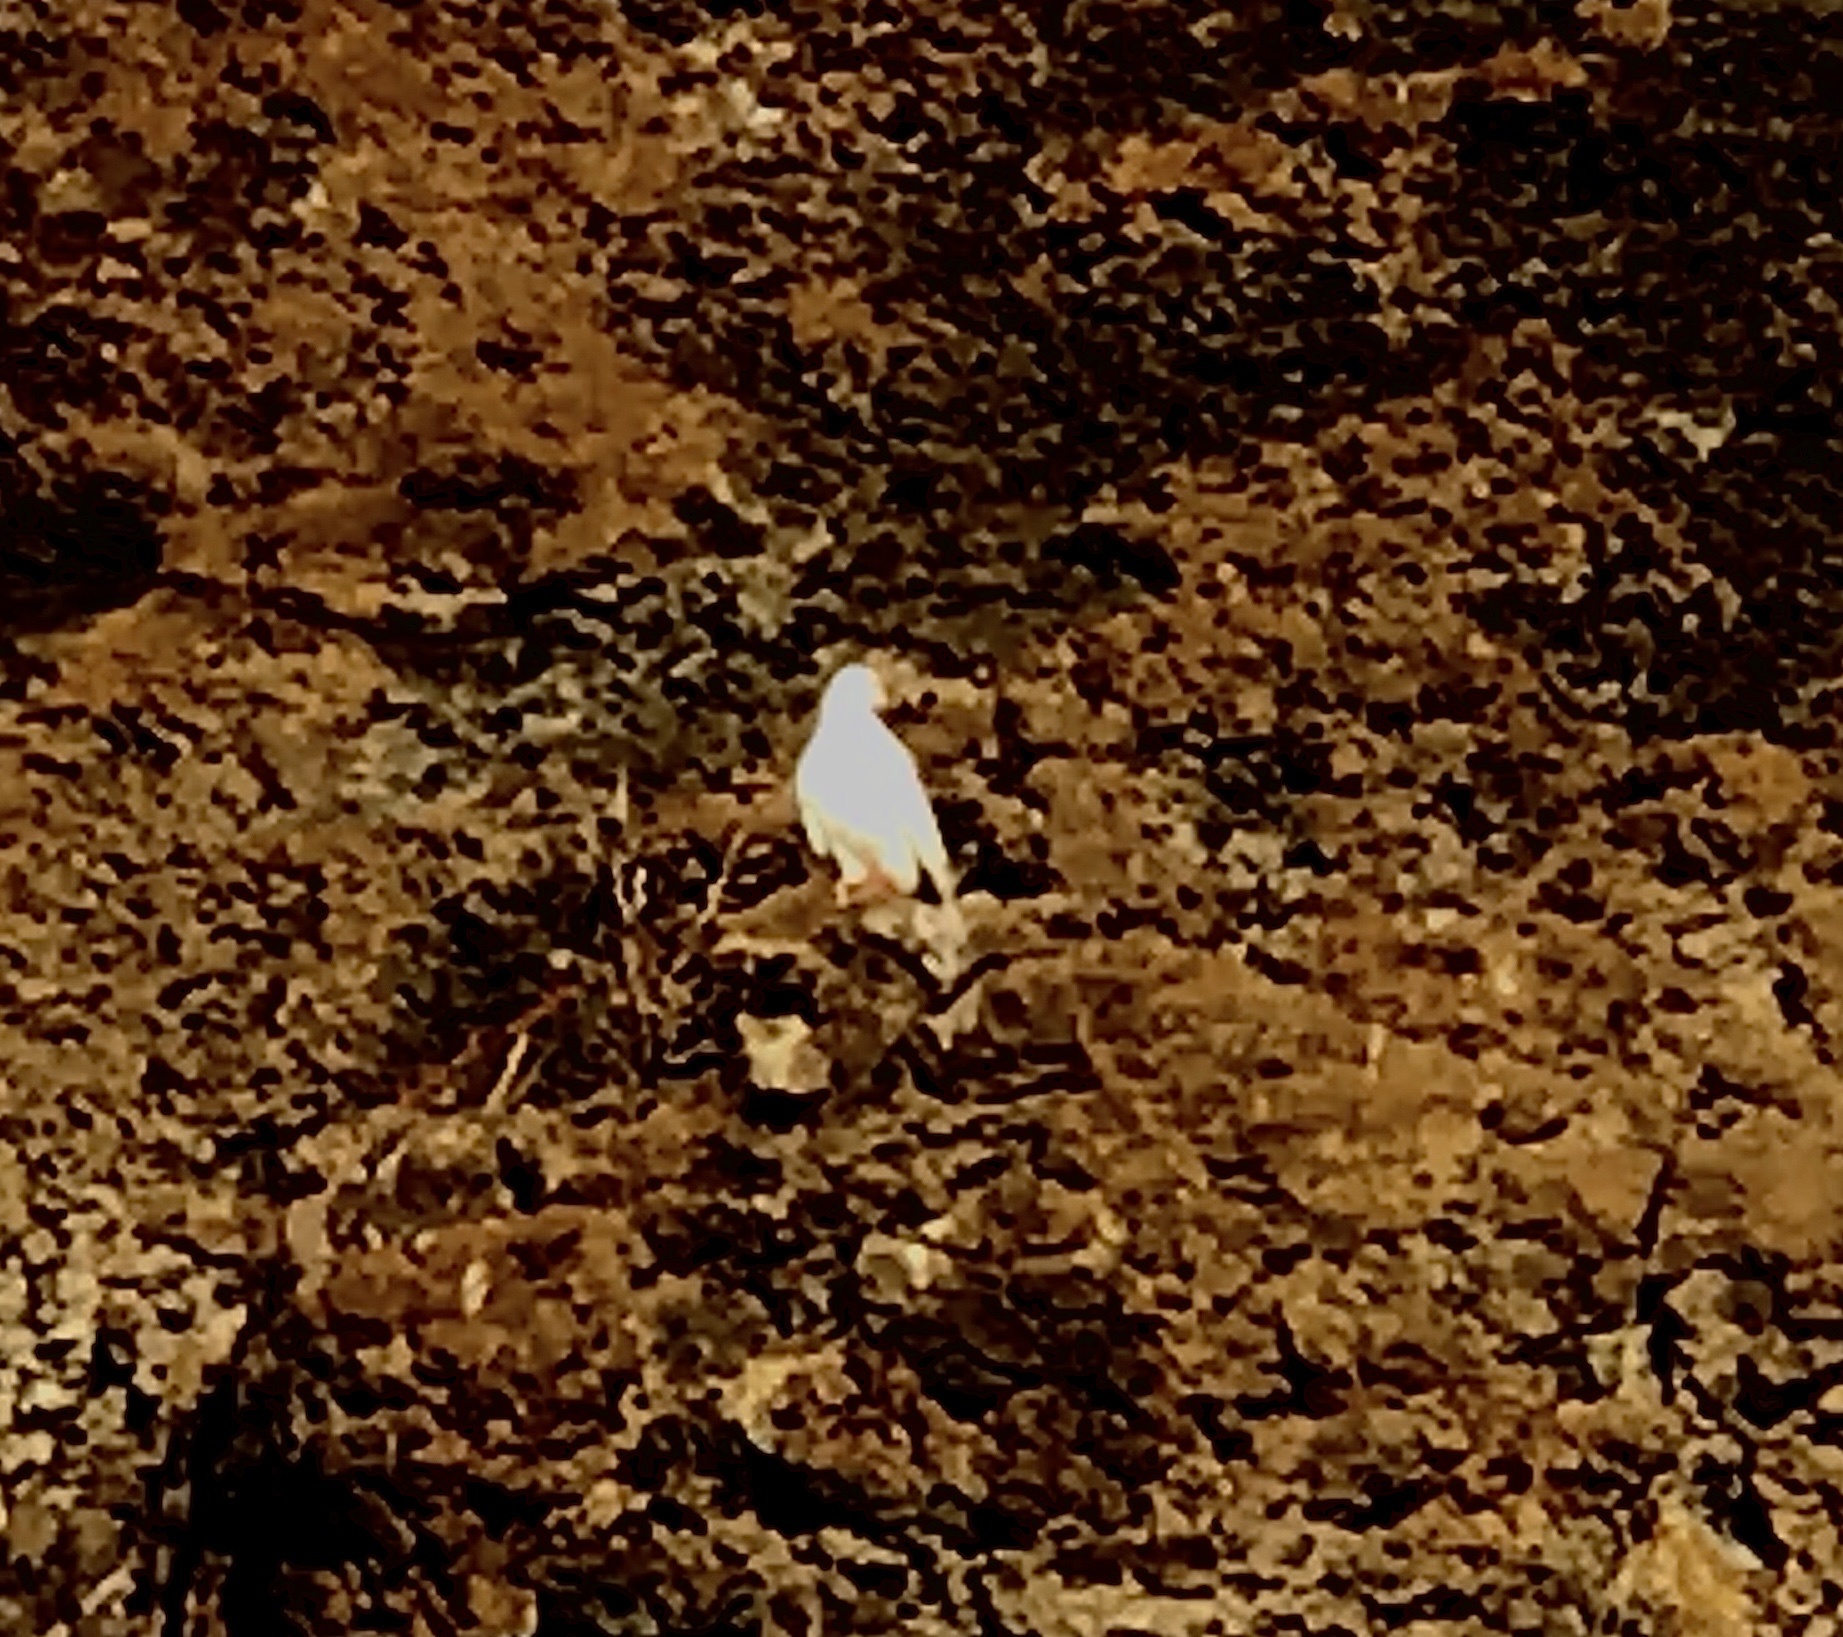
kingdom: Animalia
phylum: Chordata
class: Aves
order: Columbiformes
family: Columbidae
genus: Columba
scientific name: Columba livia
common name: Rock pigeon
